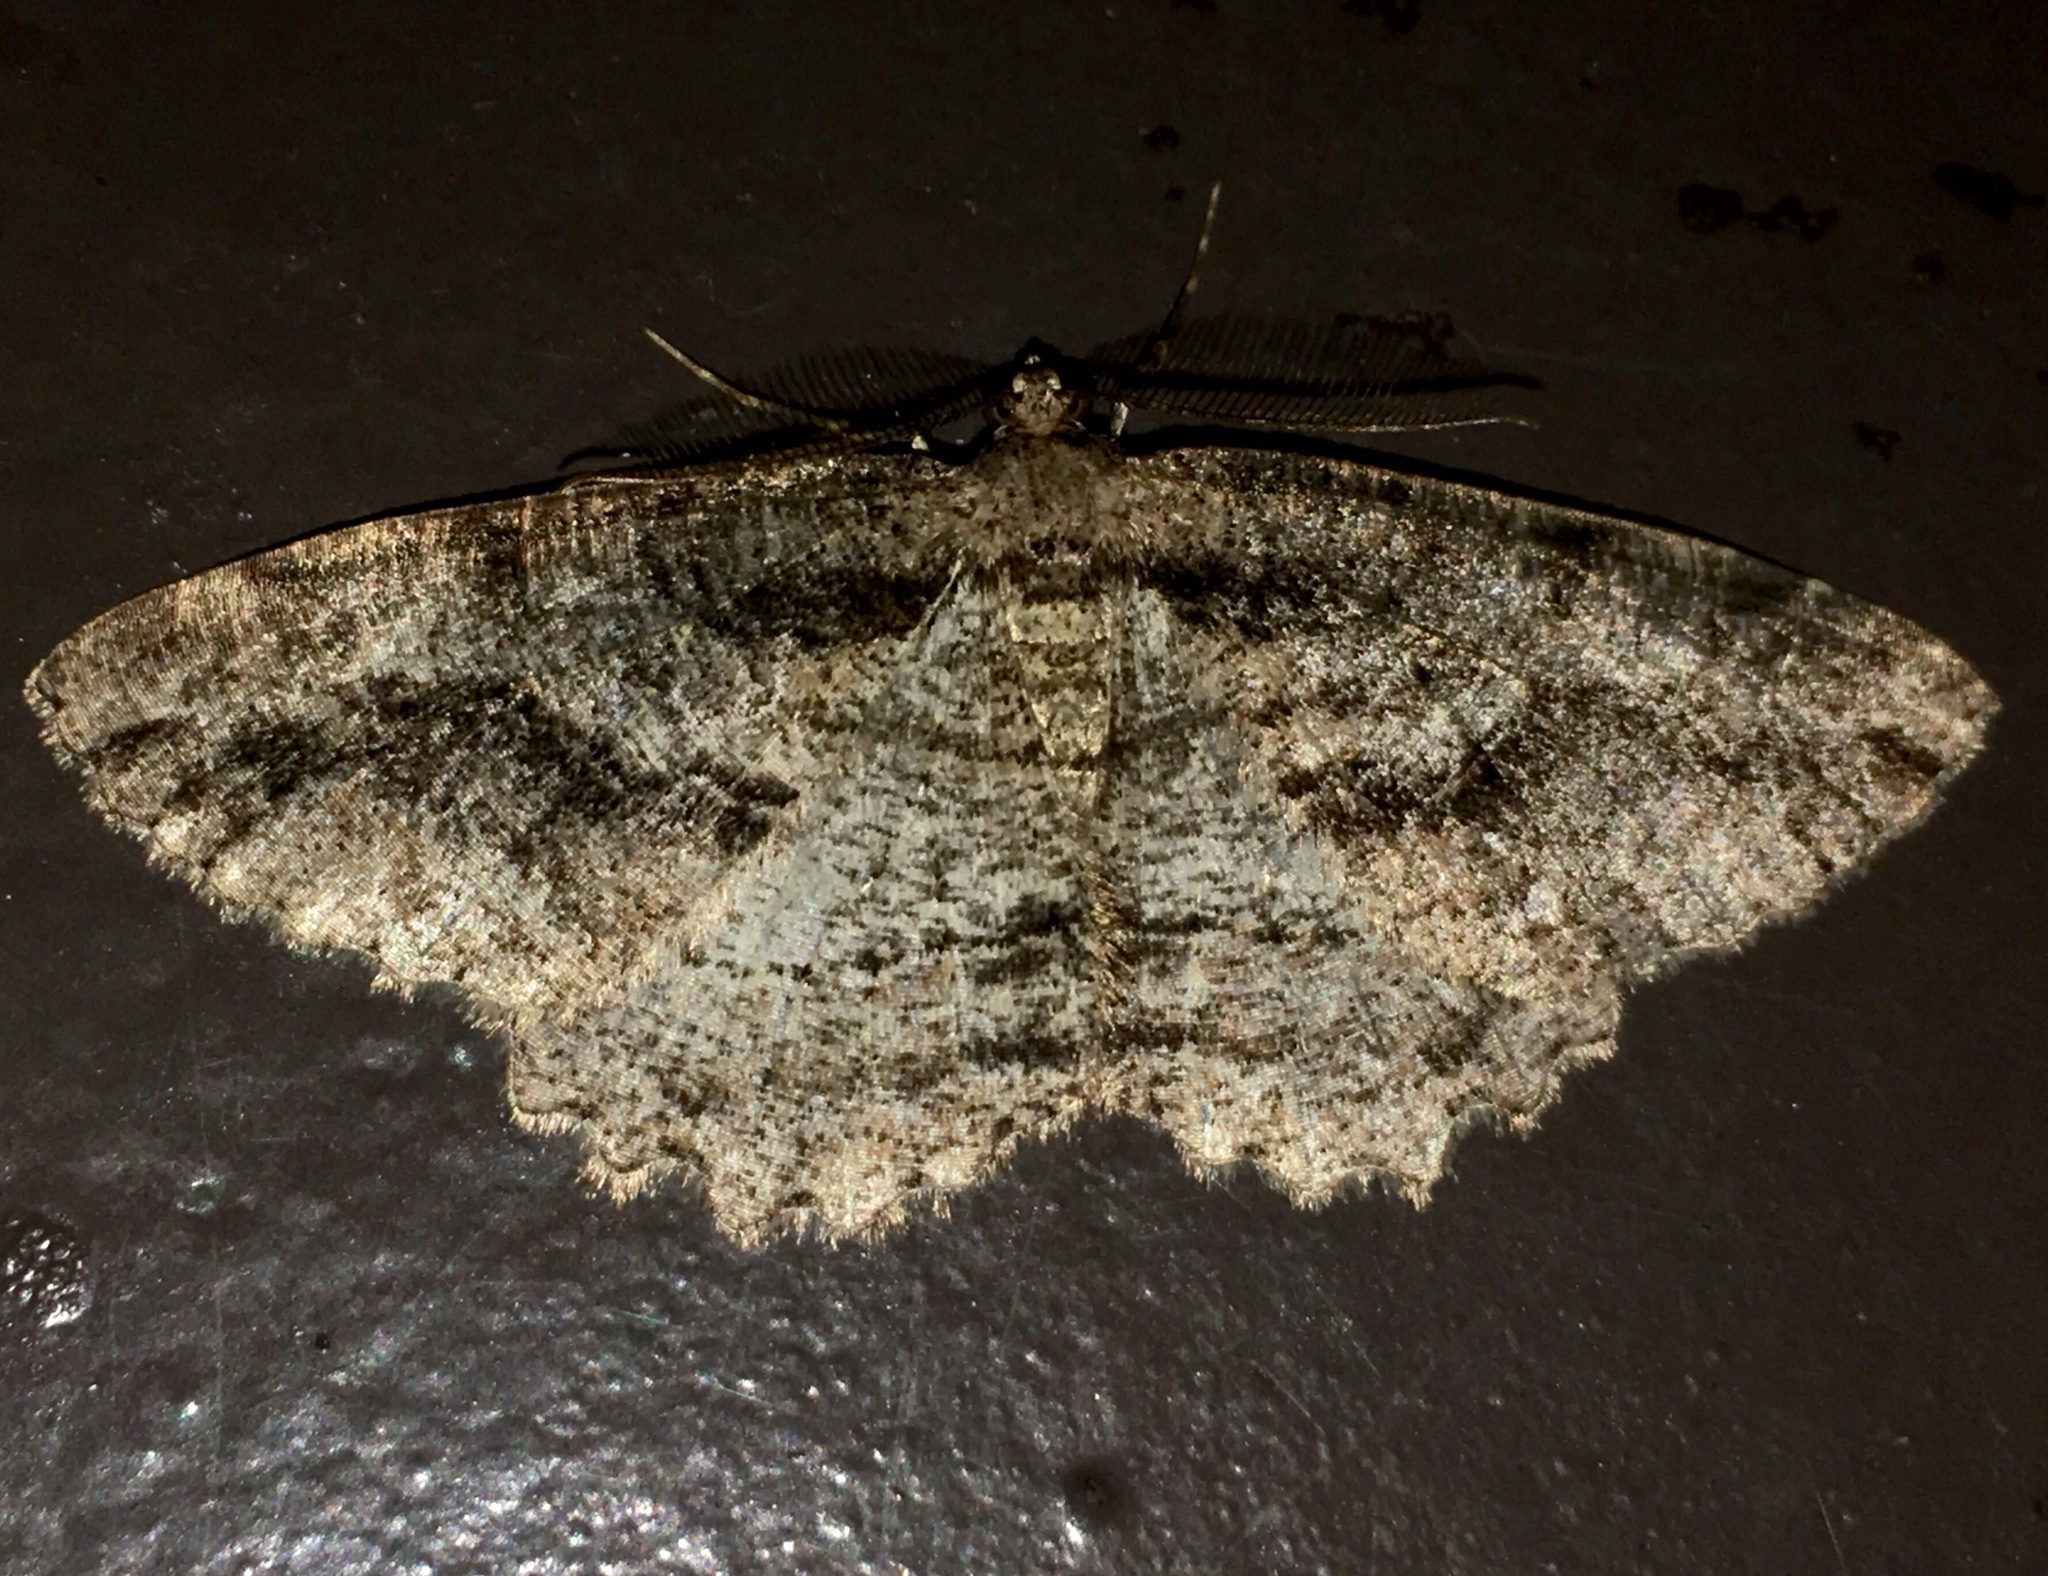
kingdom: Animalia
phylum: Arthropoda
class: Insecta
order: Lepidoptera
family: Geometridae
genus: Neoalcis
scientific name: Neoalcis californiaria
